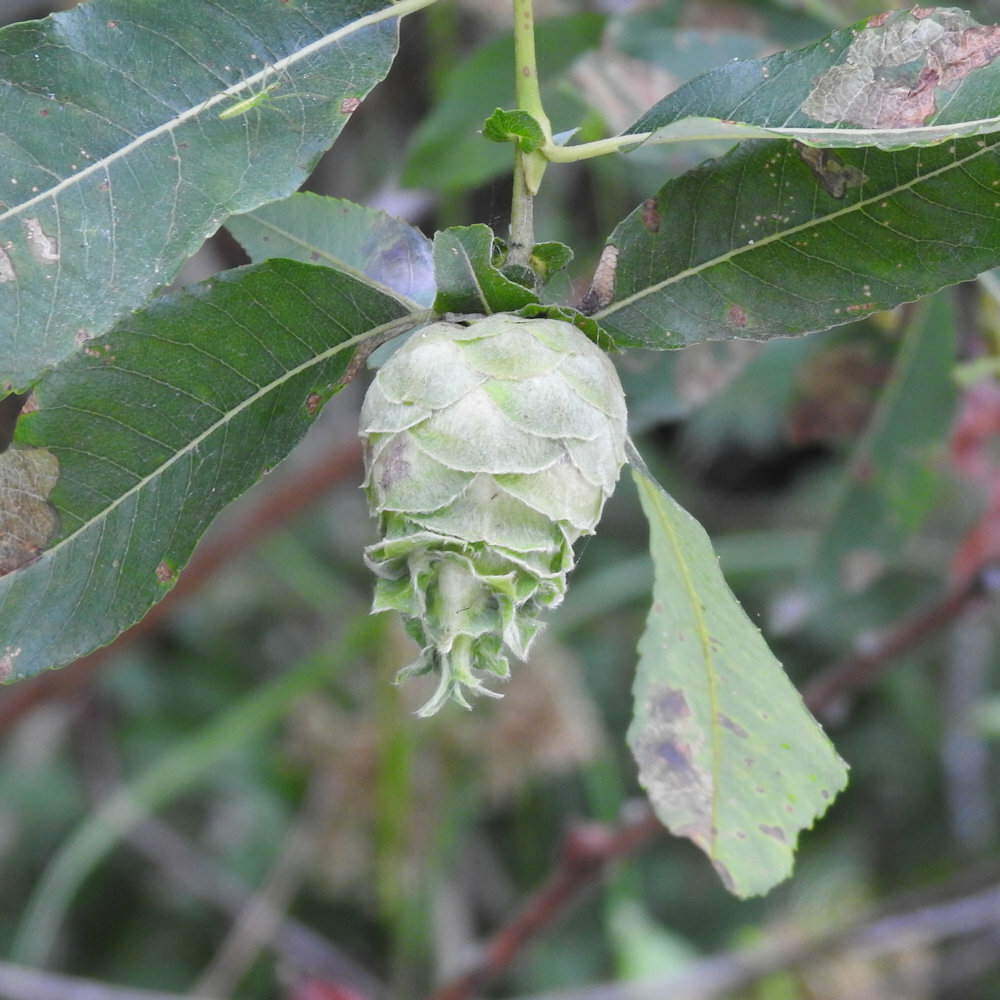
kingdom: Animalia
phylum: Arthropoda
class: Insecta
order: Diptera
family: Cecidomyiidae
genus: Rabdophaga
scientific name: Rabdophaga strobiloides
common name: Willow pinecone gall midge
